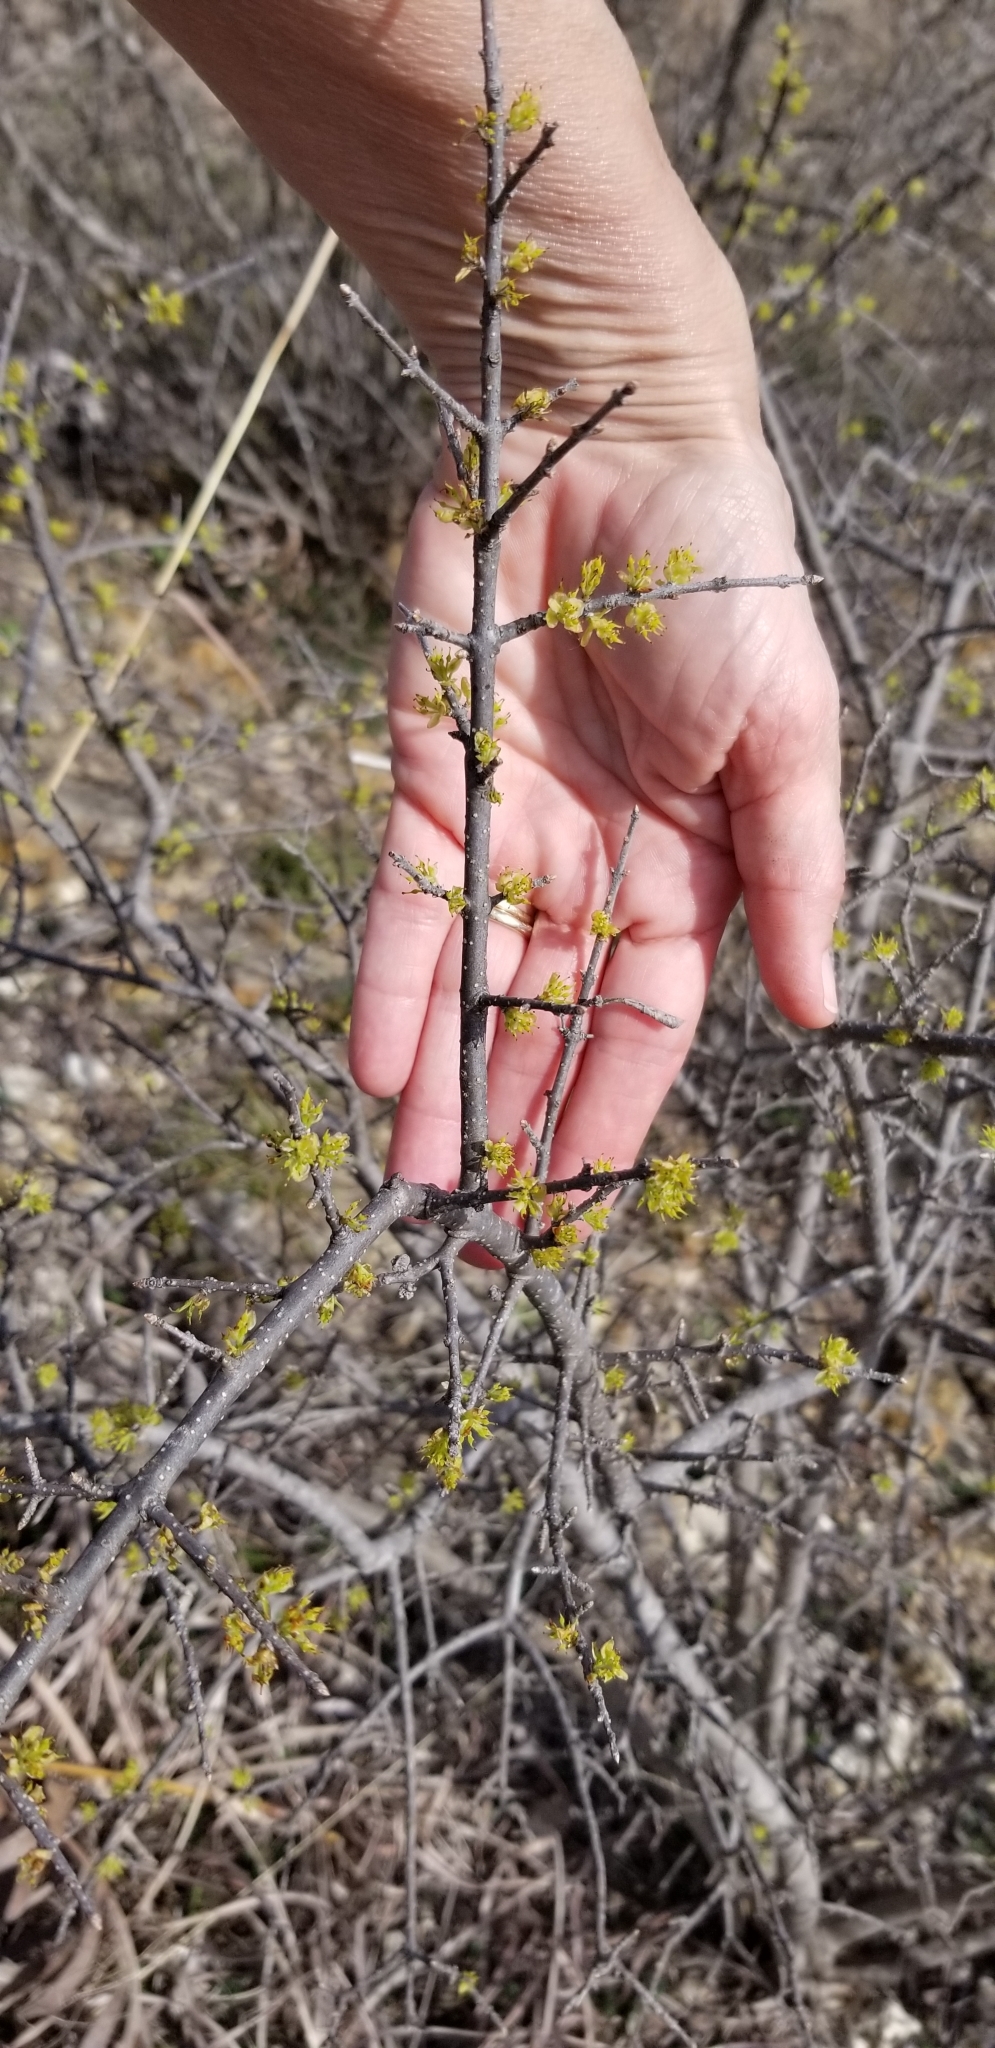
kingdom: Plantae
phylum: Tracheophyta
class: Magnoliopsida
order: Lamiales
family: Oleaceae
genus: Forestiera
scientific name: Forestiera pubescens
